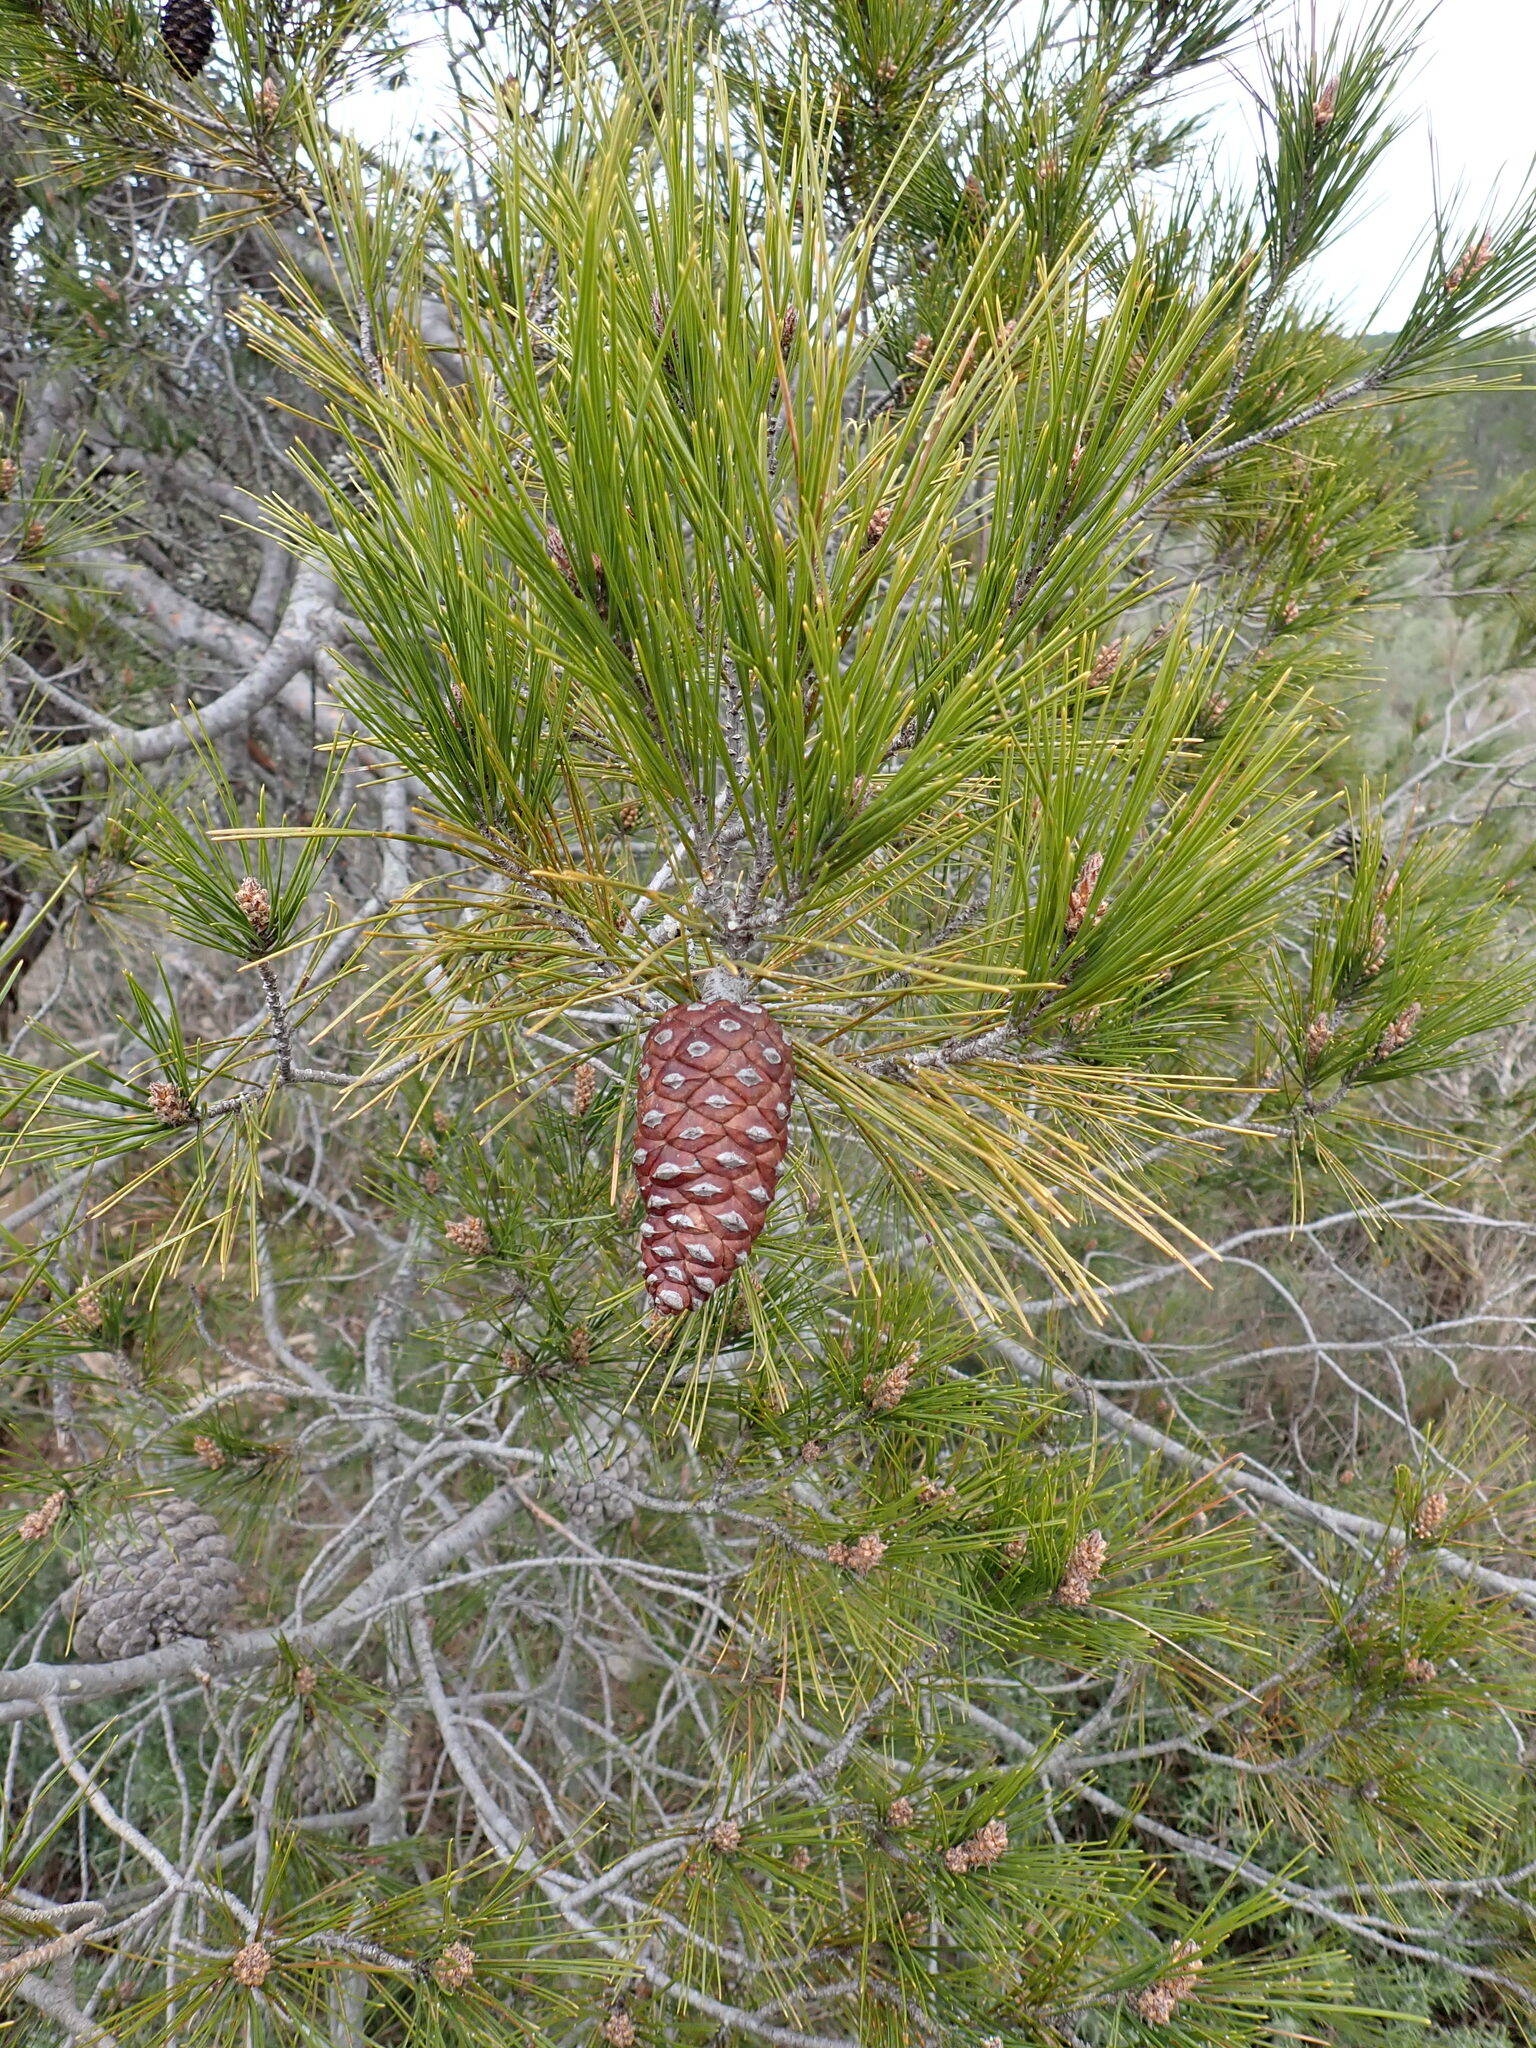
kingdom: Plantae
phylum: Tracheophyta
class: Pinopsida
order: Pinales
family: Pinaceae
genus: Pinus
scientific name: Pinus halepensis
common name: Aleppo pine
